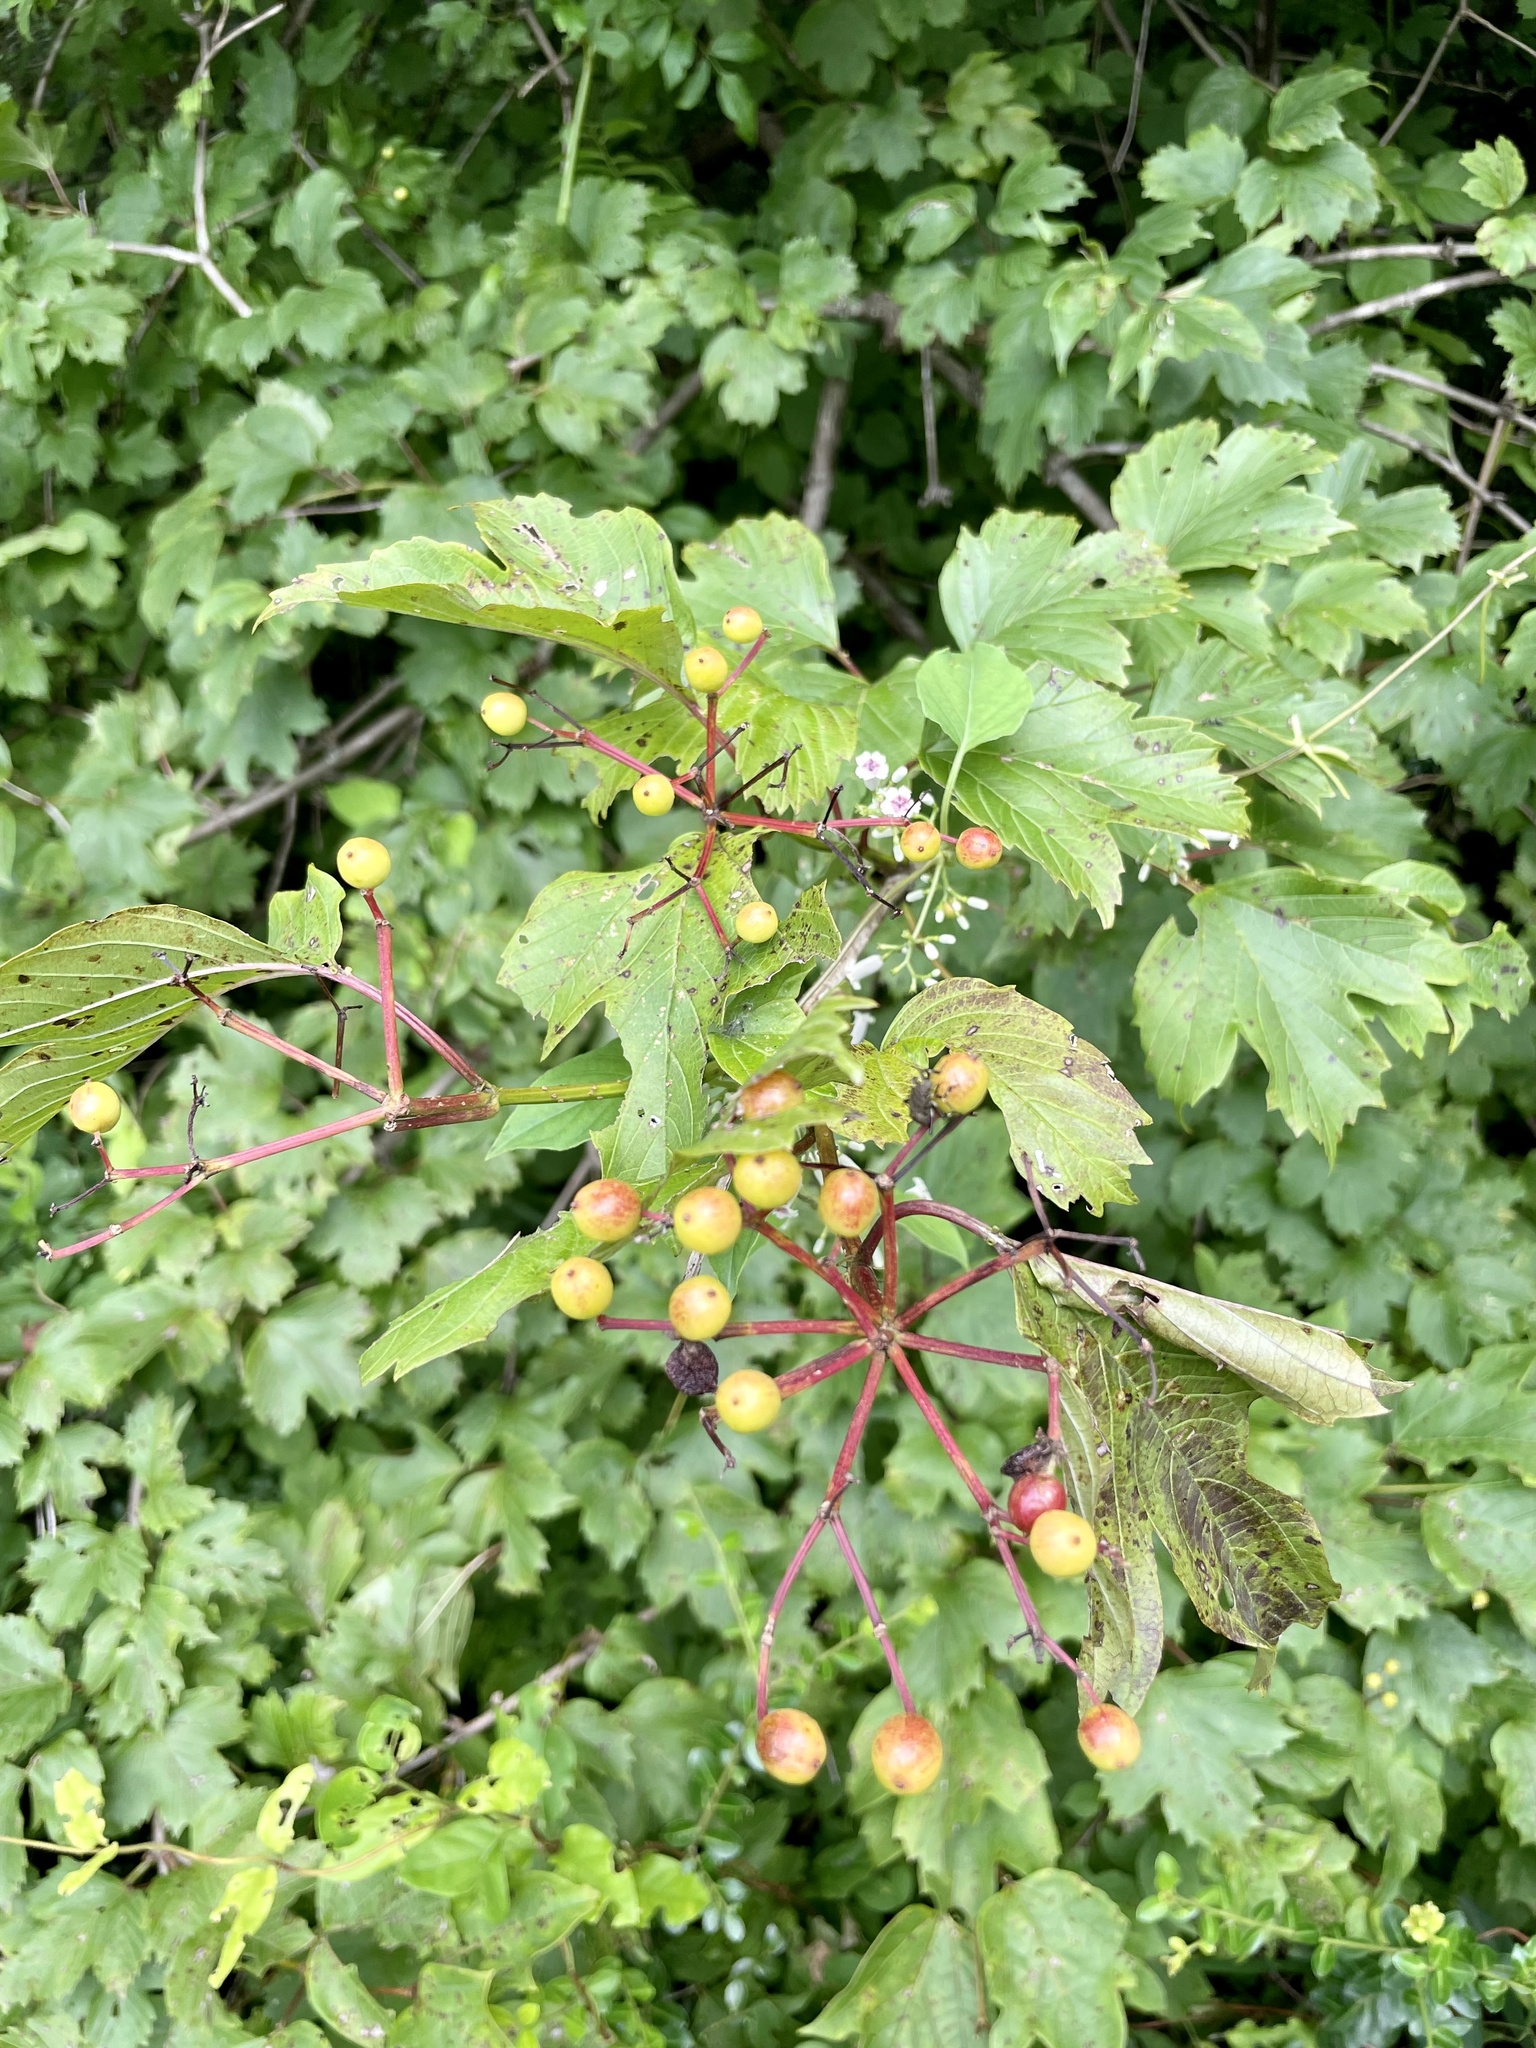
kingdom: Plantae
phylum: Tracheophyta
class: Magnoliopsida
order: Dipsacales
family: Viburnaceae
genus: Viburnum
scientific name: Viburnum sargentii
